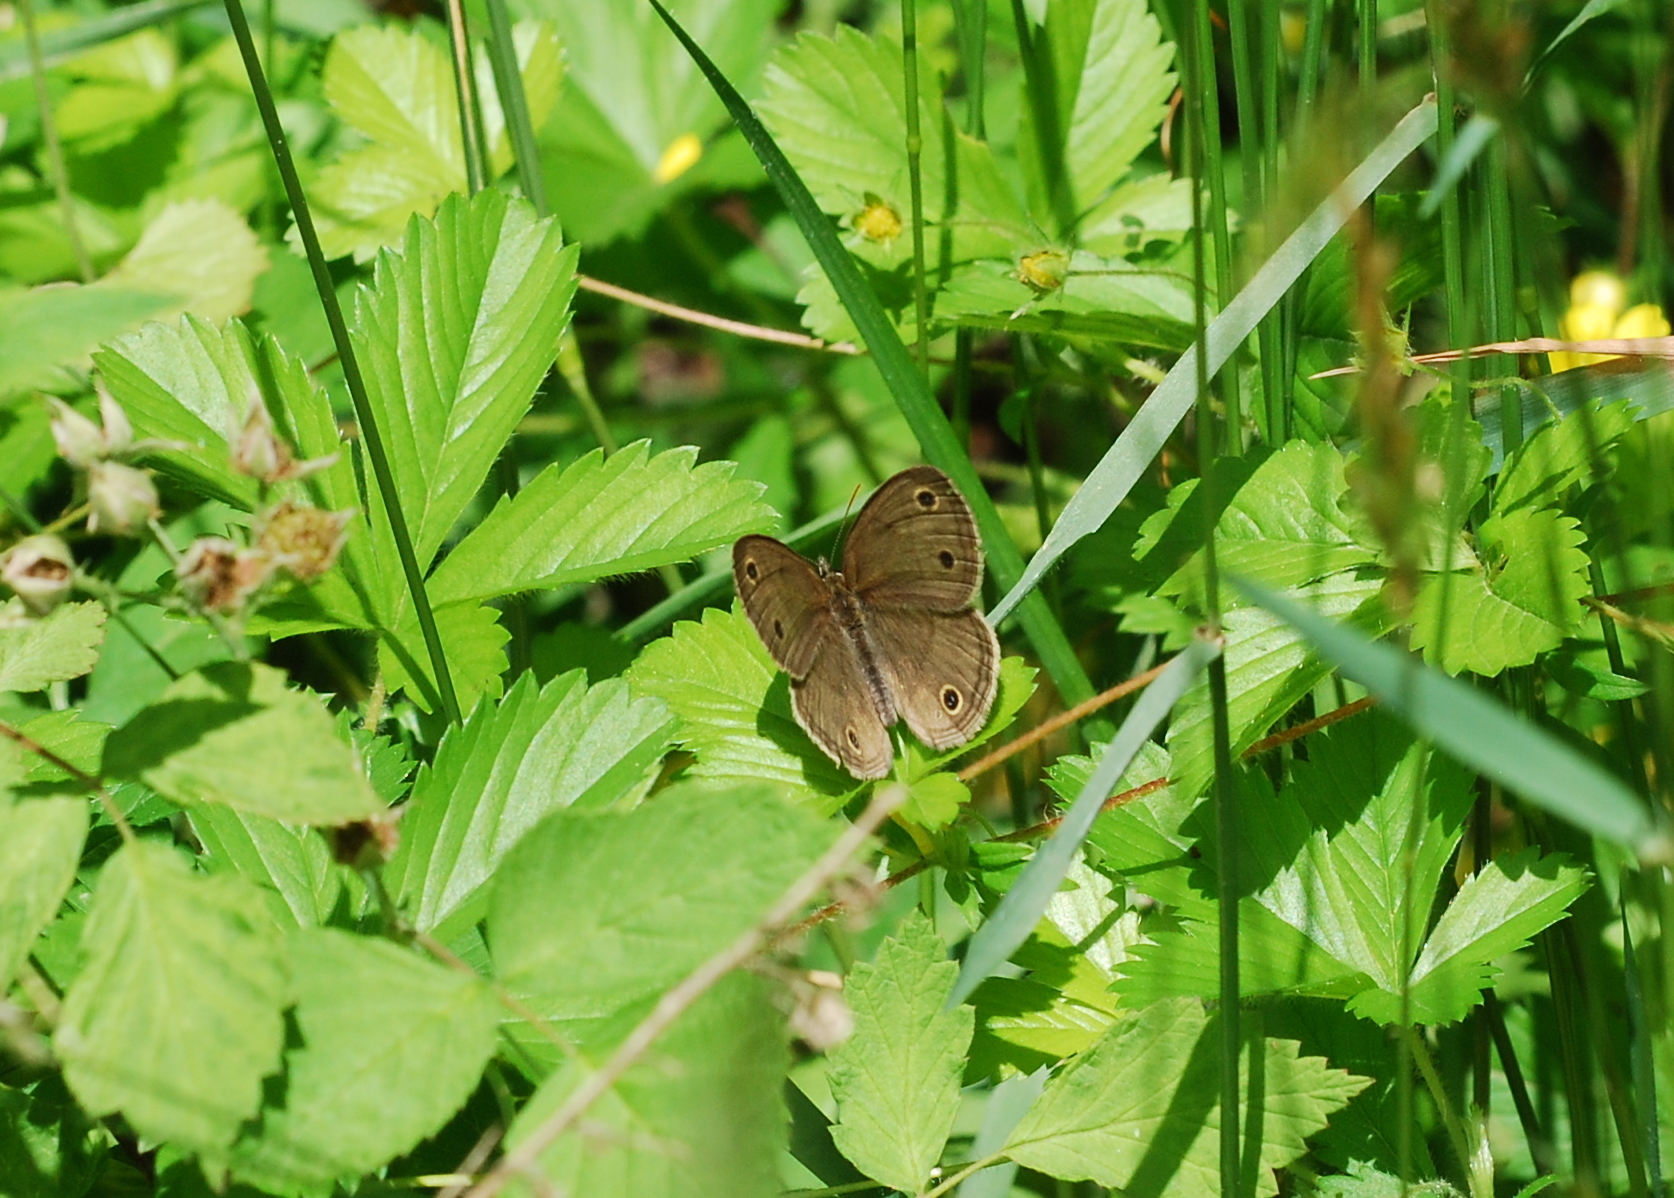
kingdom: Animalia
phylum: Arthropoda
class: Insecta
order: Lepidoptera
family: Nymphalidae
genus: Euptychia
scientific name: Euptychia cymela
